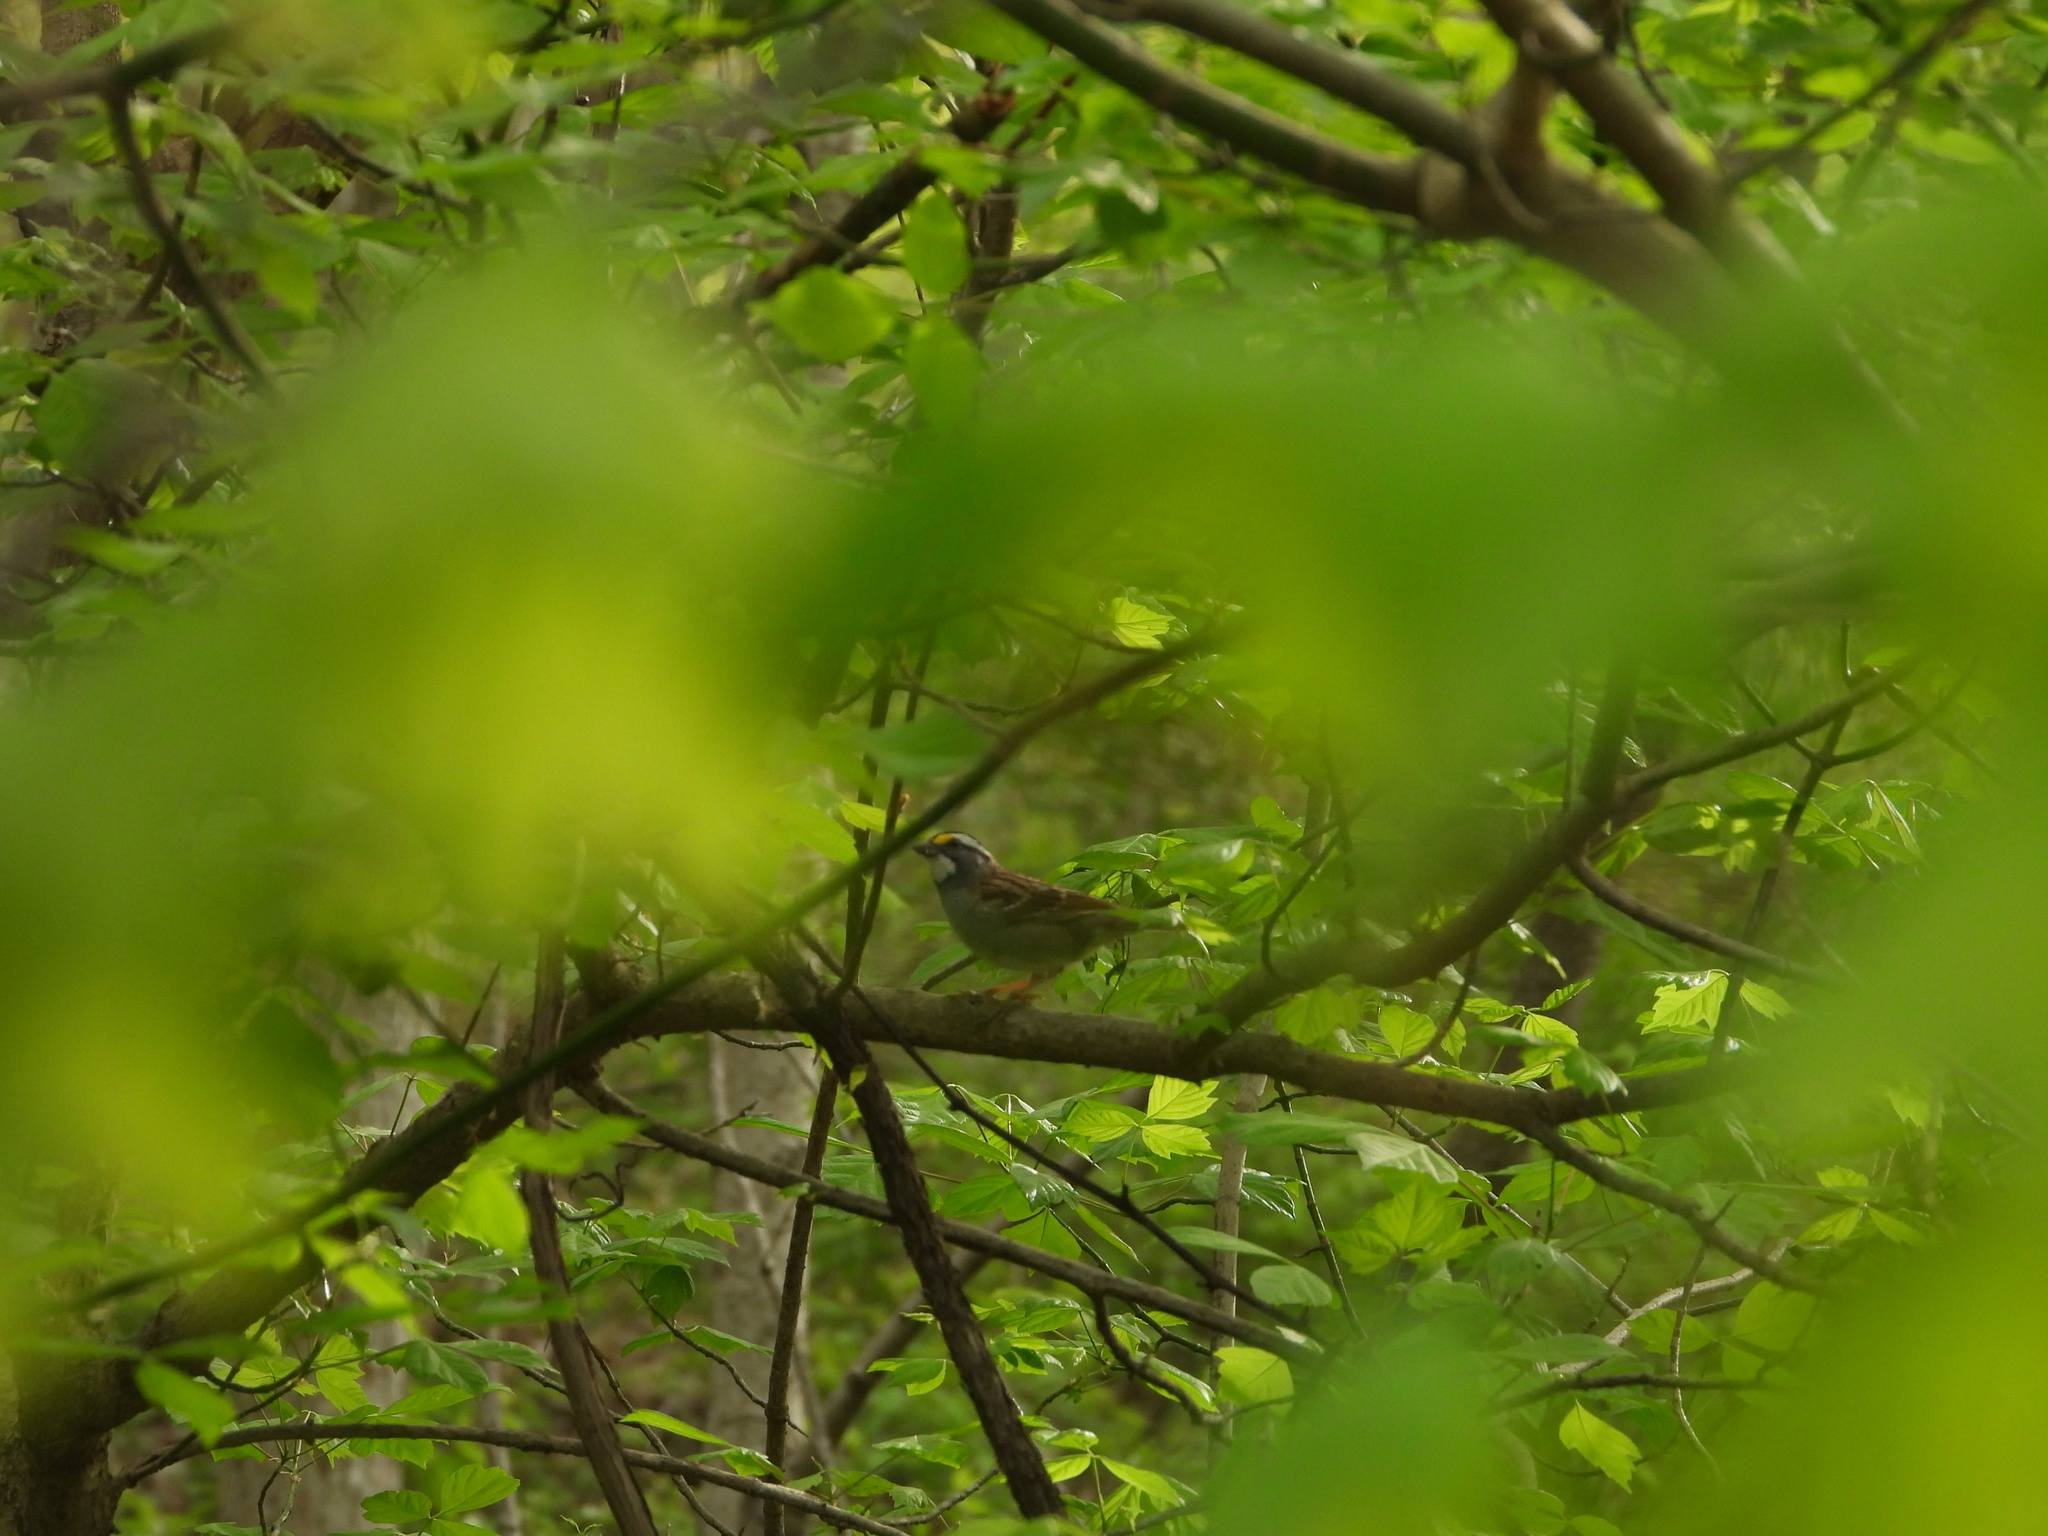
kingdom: Animalia
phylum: Chordata
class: Aves
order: Passeriformes
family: Passerellidae
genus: Zonotrichia
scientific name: Zonotrichia albicollis
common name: White-throated sparrow
